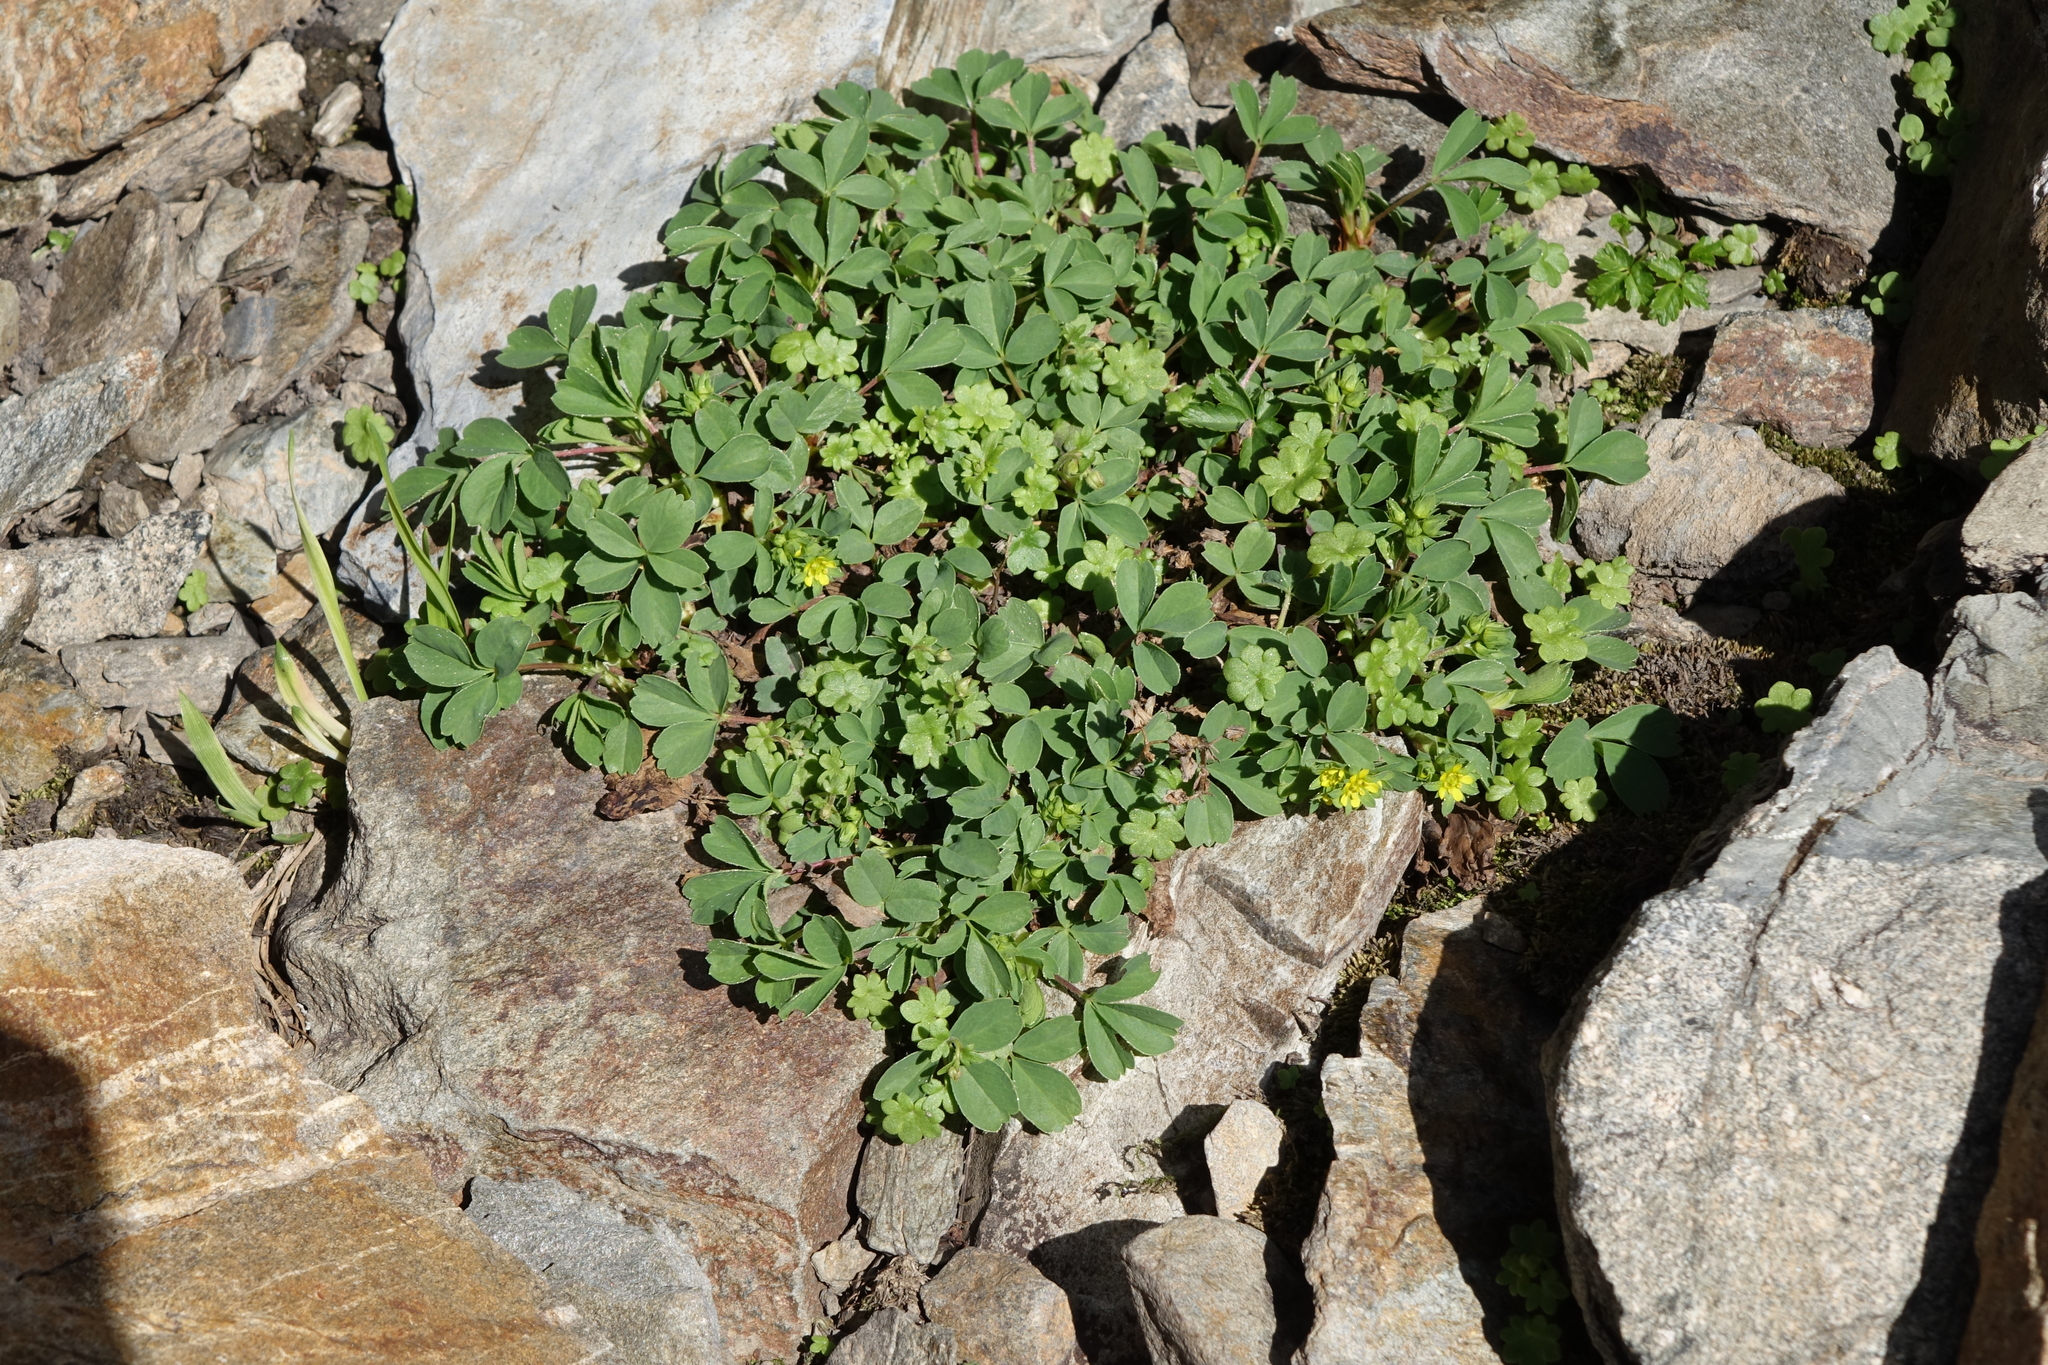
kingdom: Plantae
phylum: Tracheophyta
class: Magnoliopsida
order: Rosales
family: Rosaceae
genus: Sibbaldia
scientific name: Sibbaldia parviflora
